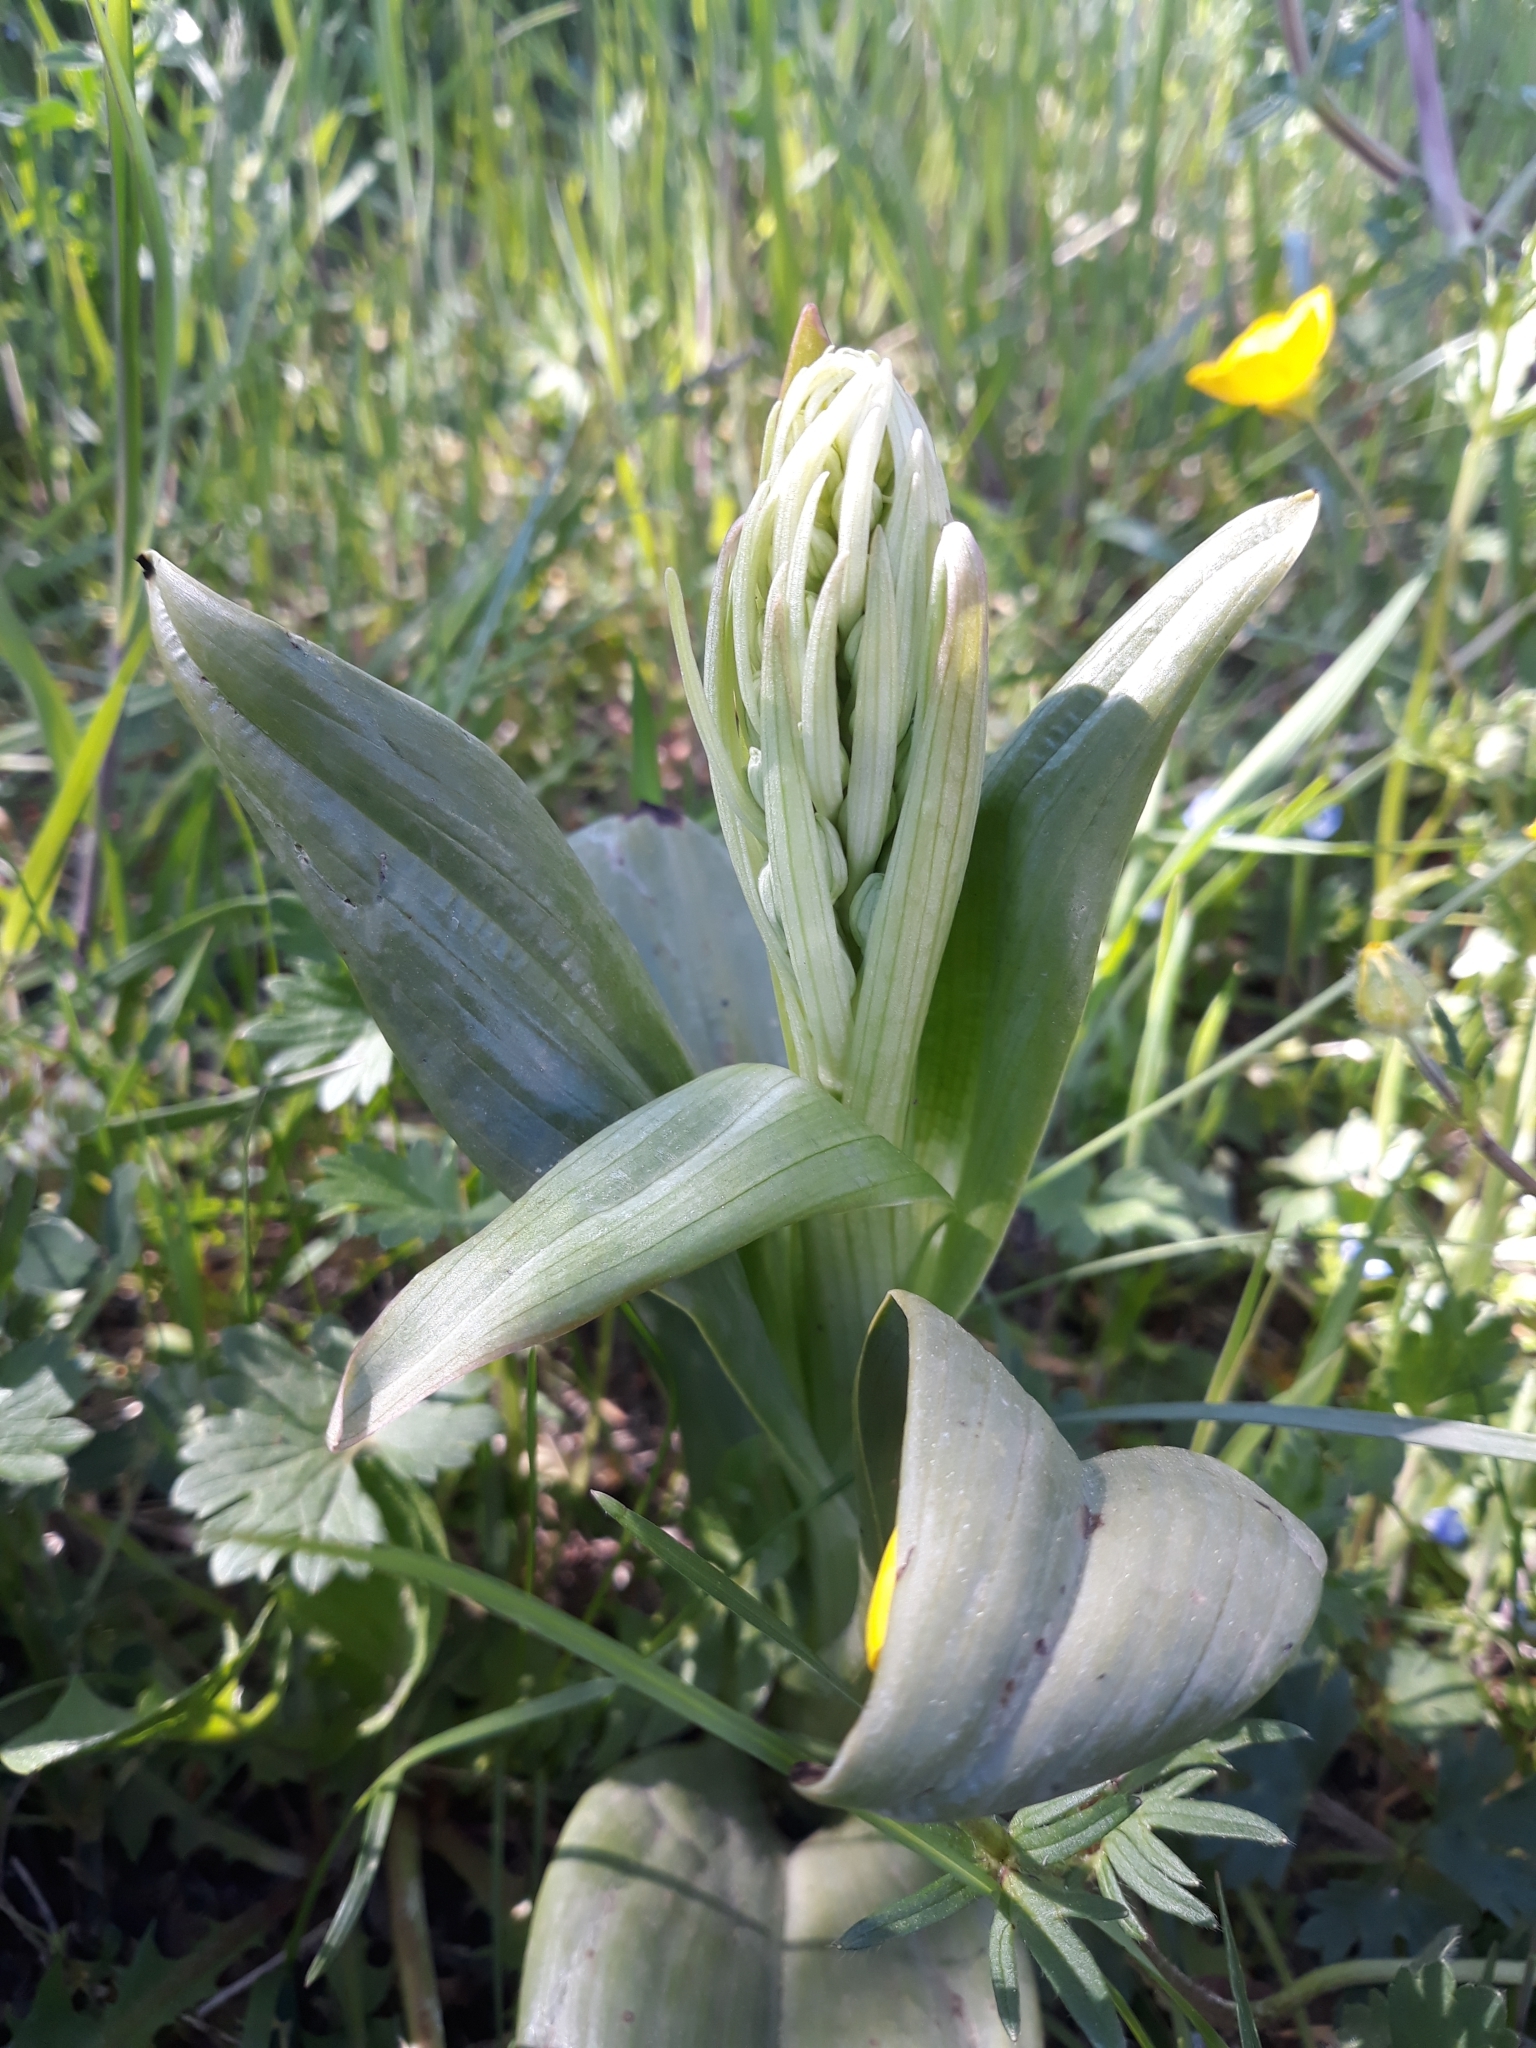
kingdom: Plantae
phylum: Tracheophyta
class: Liliopsida
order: Asparagales
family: Orchidaceae
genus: Himantoglossum
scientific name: Himantoglossum hircinum
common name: Lizard orchid
